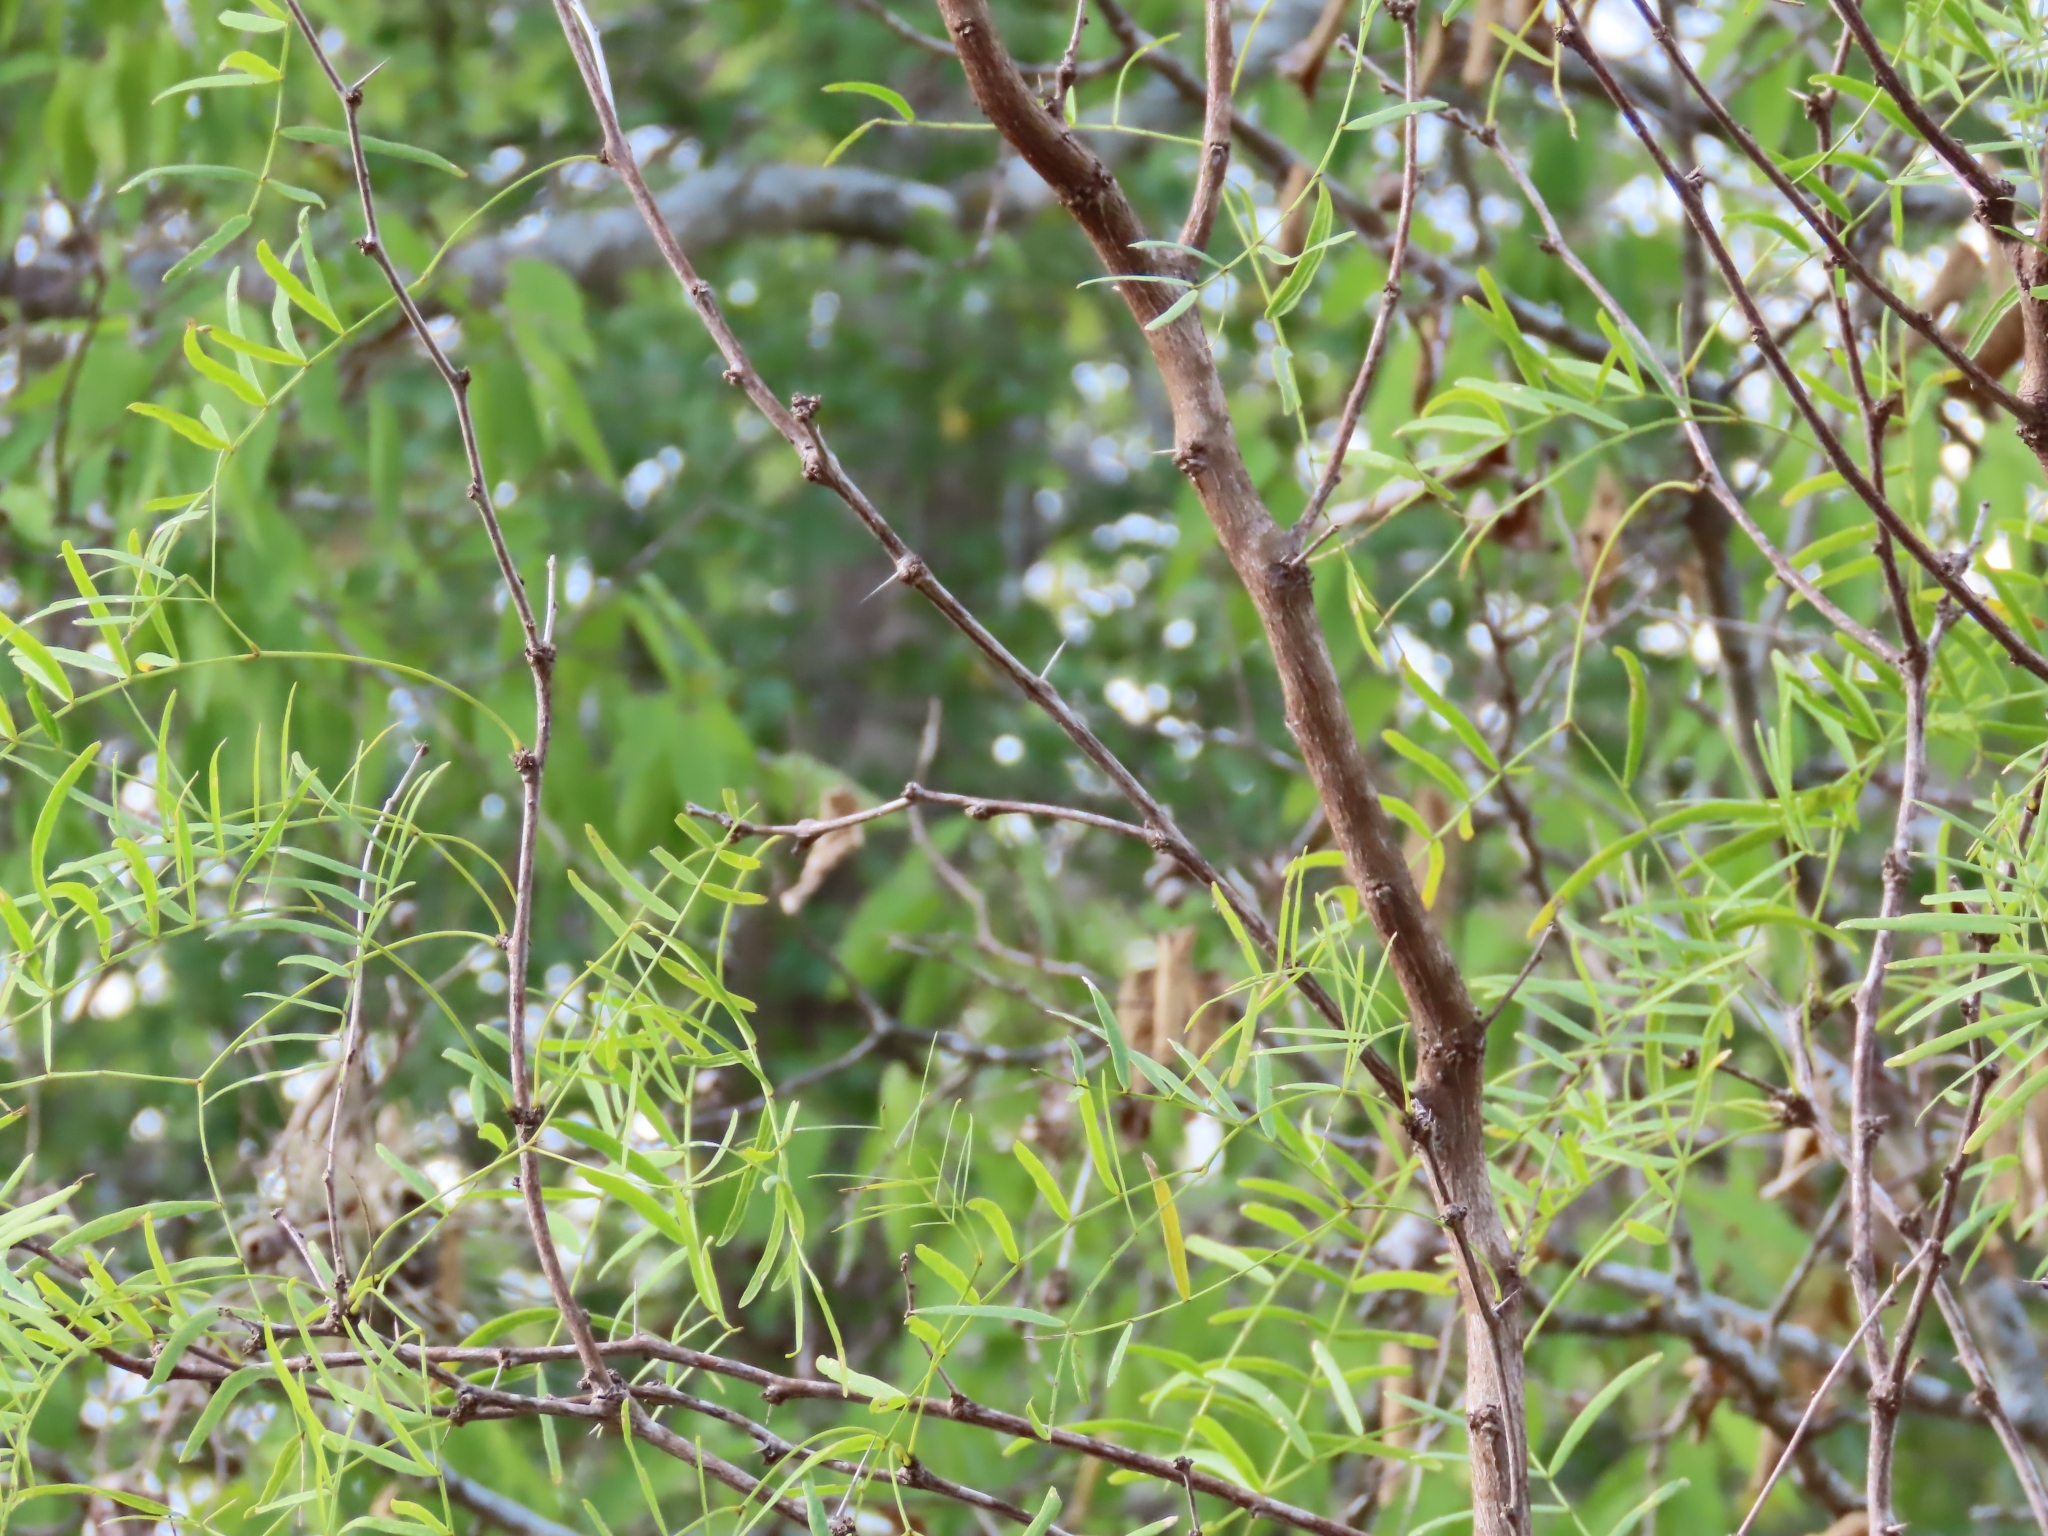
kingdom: Plantae
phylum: Tracheophyta
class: Magnoliopsida
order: Fabales
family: Fabaceae
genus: Prosopis
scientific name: Prosopis glandulosa
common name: Honey mesquite
